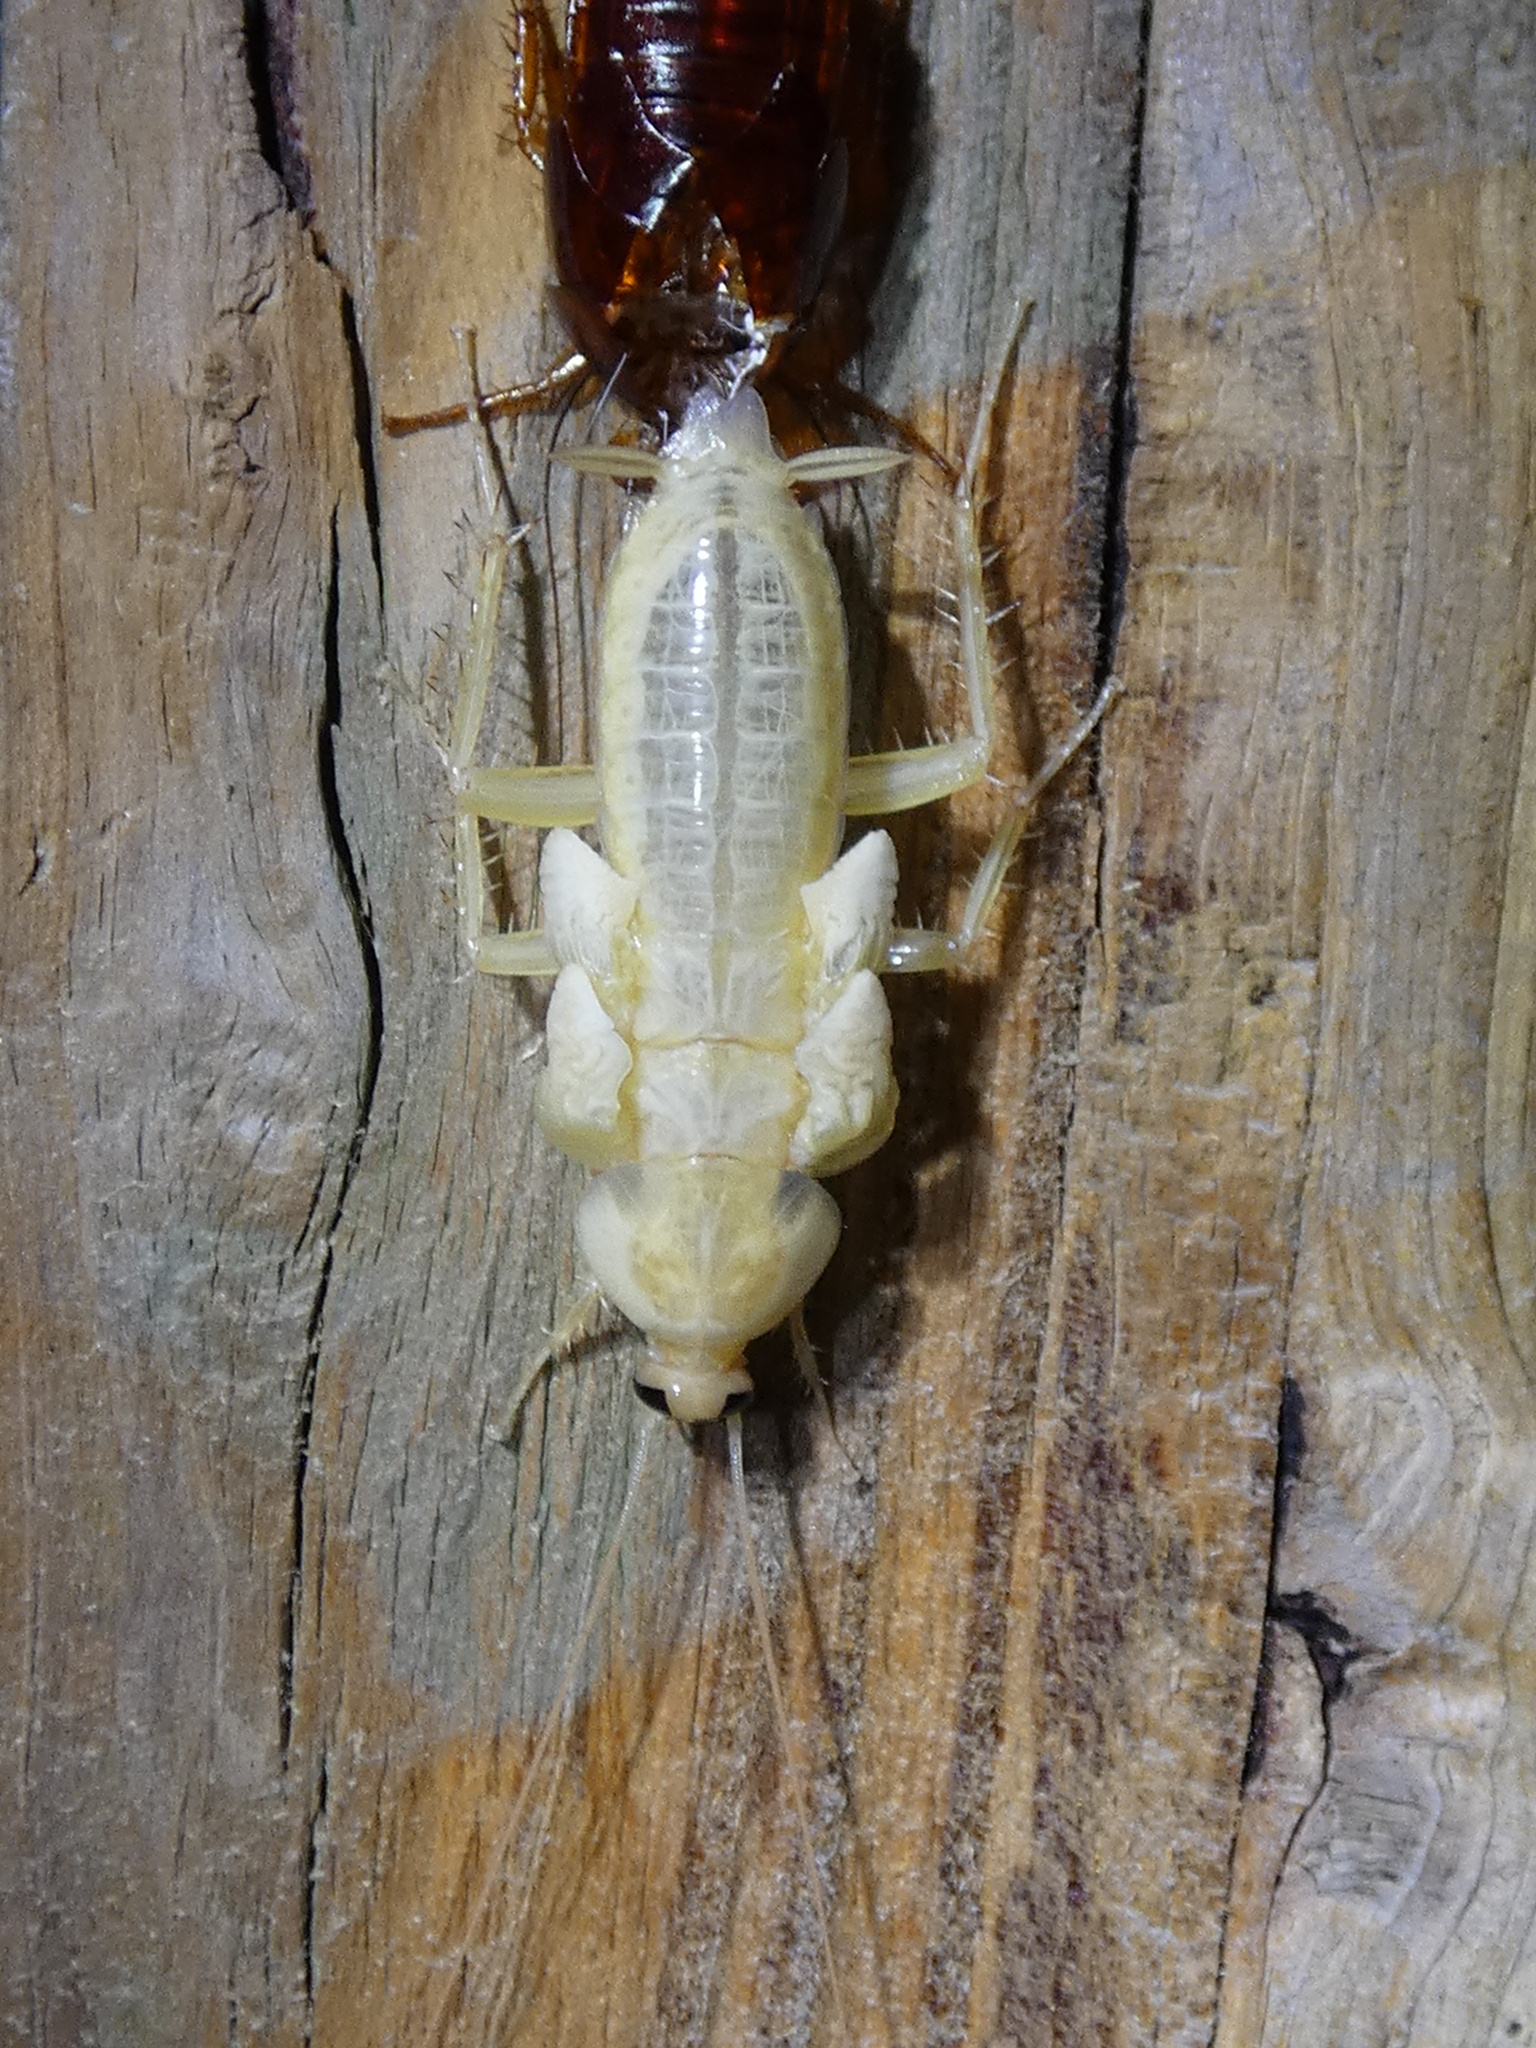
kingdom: Animalia
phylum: Arthropoda
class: Insecta
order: Blattodea
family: Blattidae
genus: Periplaneta
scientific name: Periplaneta americana
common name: American cockroach
